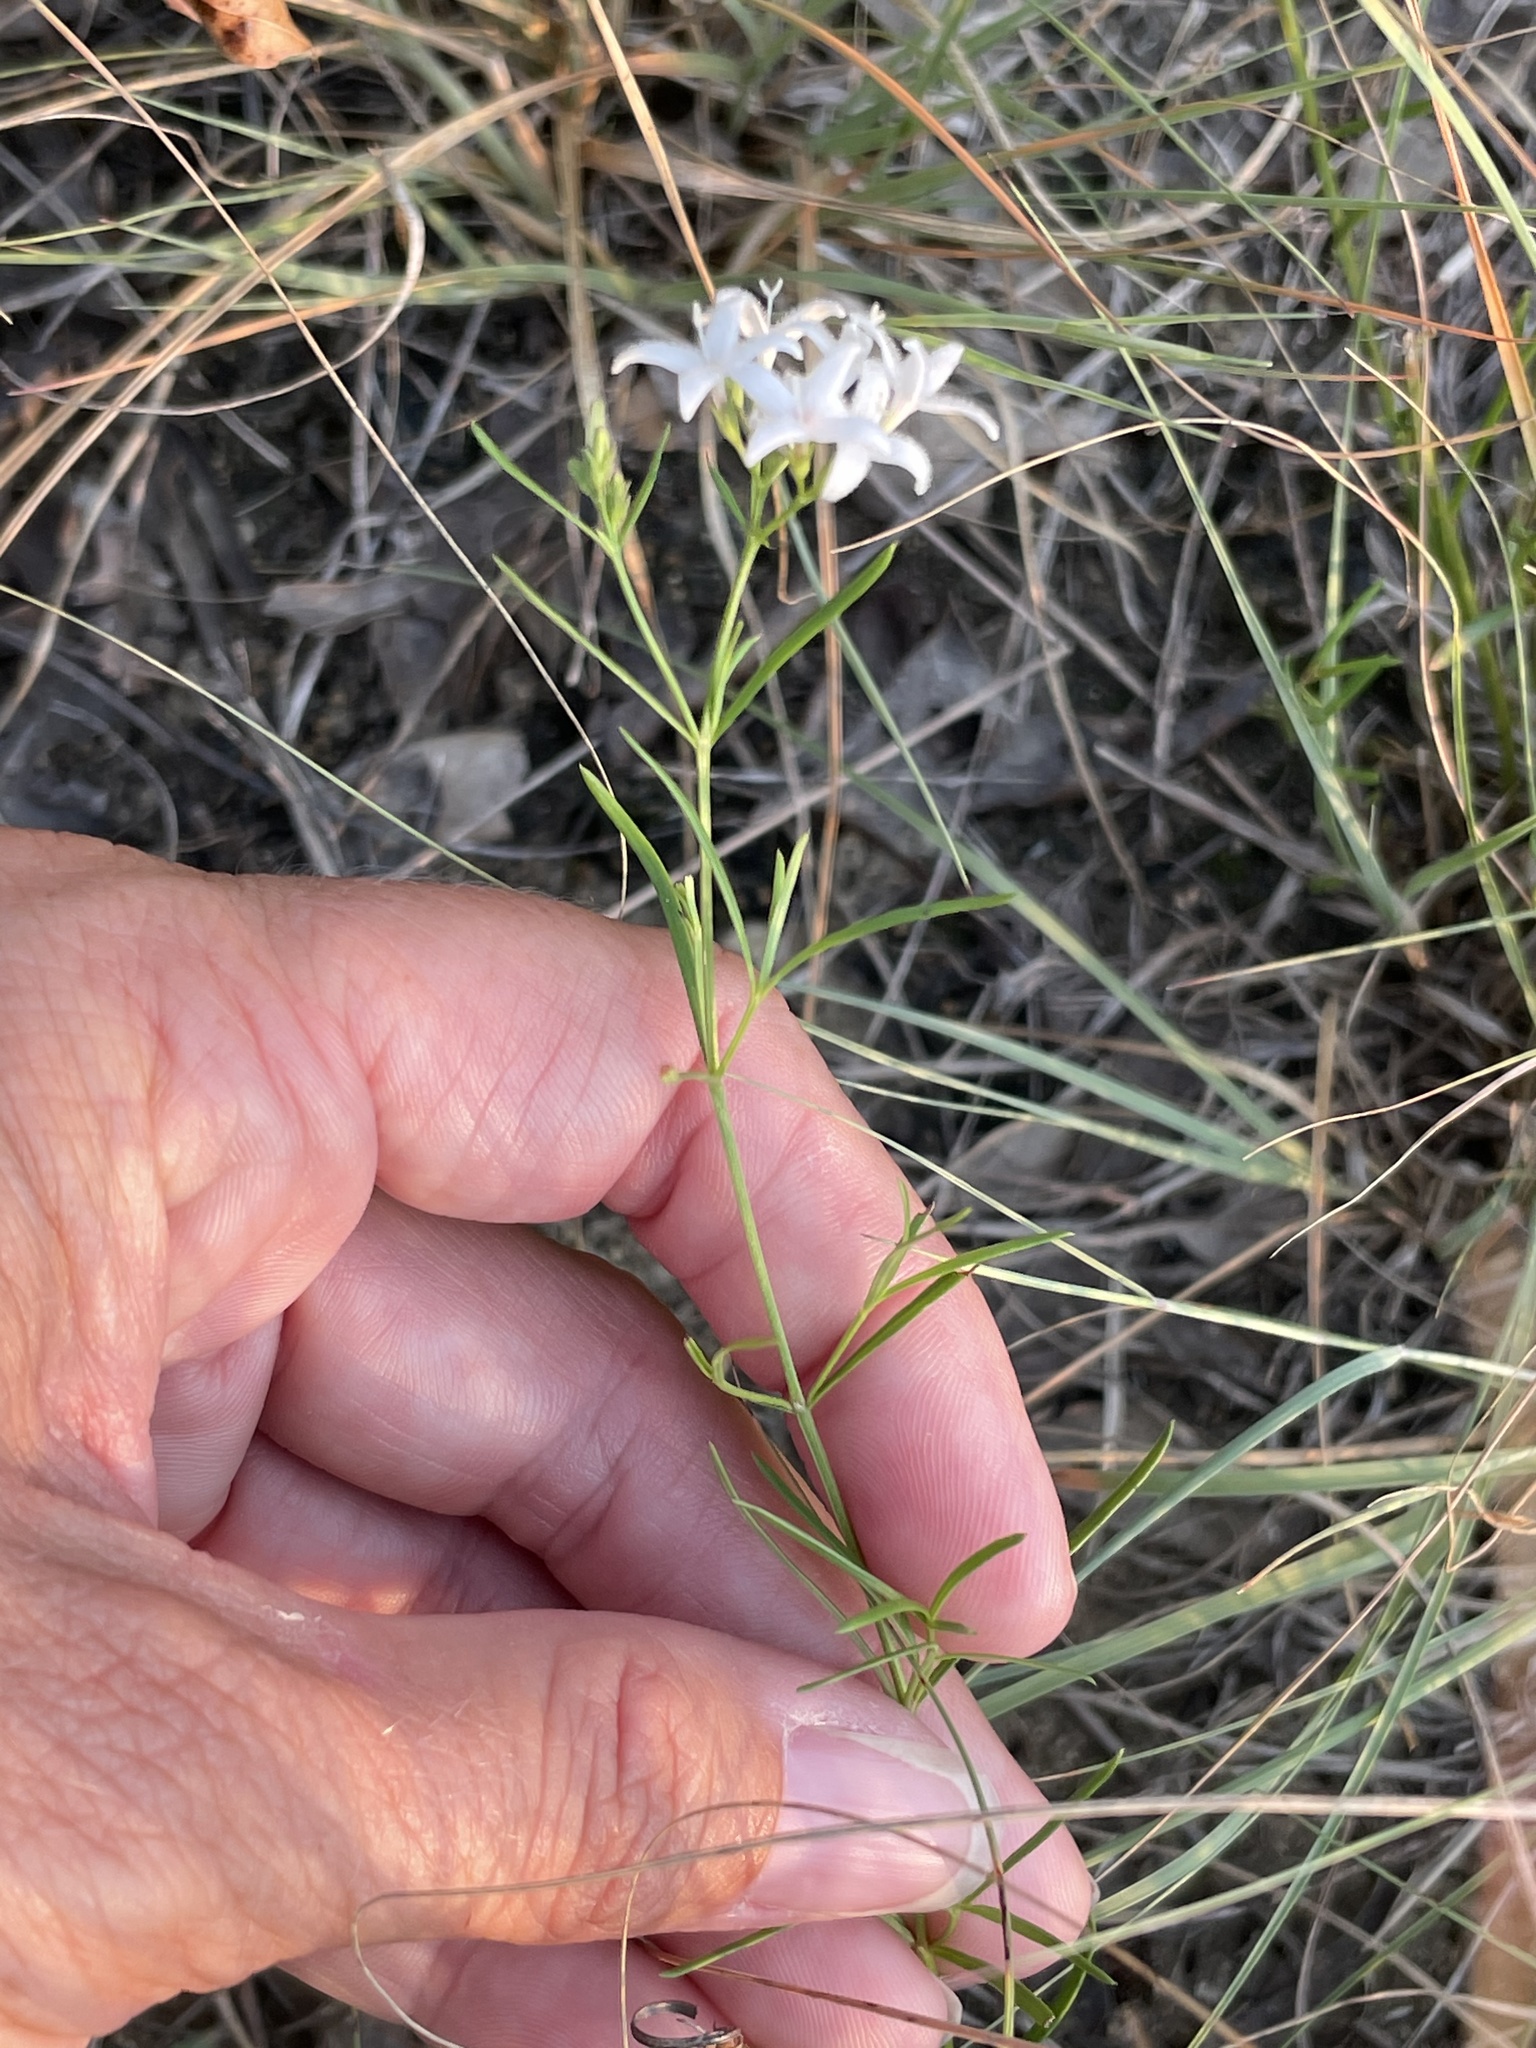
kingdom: Plantae
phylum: Tracheophyta
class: Magnoliopsida
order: Boraginales
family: Heliotropiaceae
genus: Euploca
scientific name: Euploca tenella
